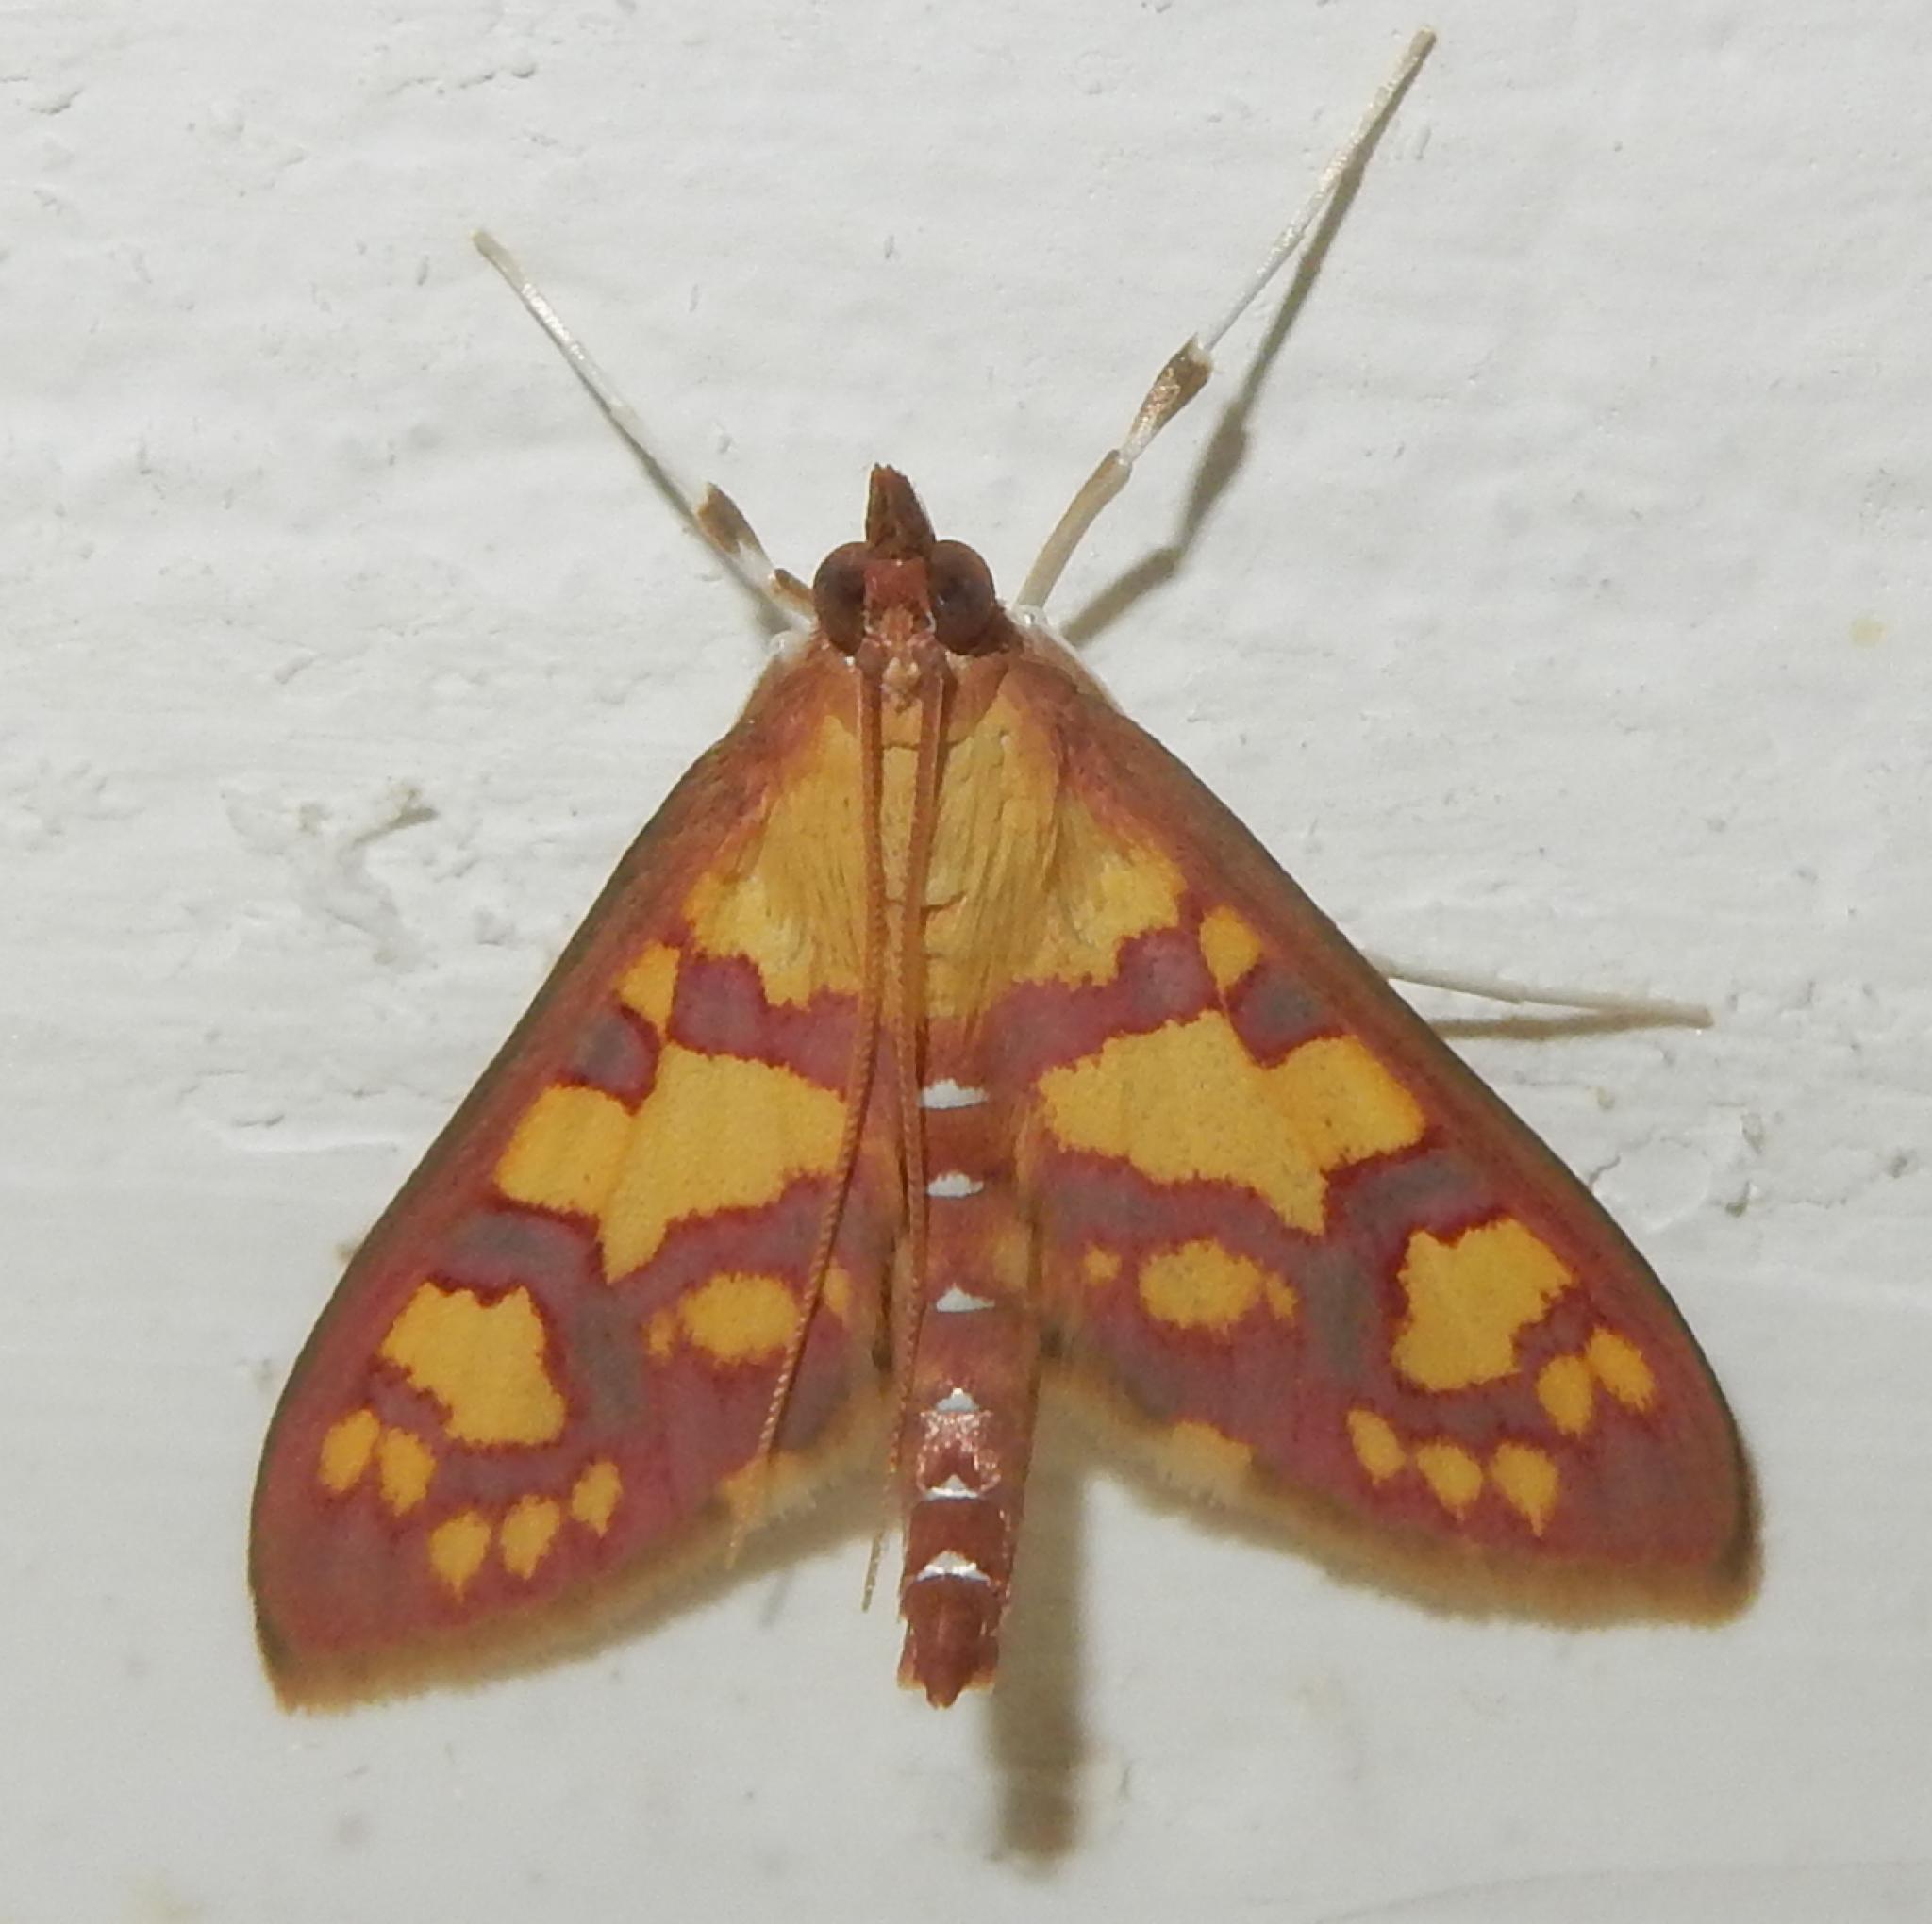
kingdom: Animalia
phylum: Arthropoda
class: Insecta
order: Lepidoptera
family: Crambidae
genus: Ischnurges
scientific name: Ischnurges Stenochora lancinalis
